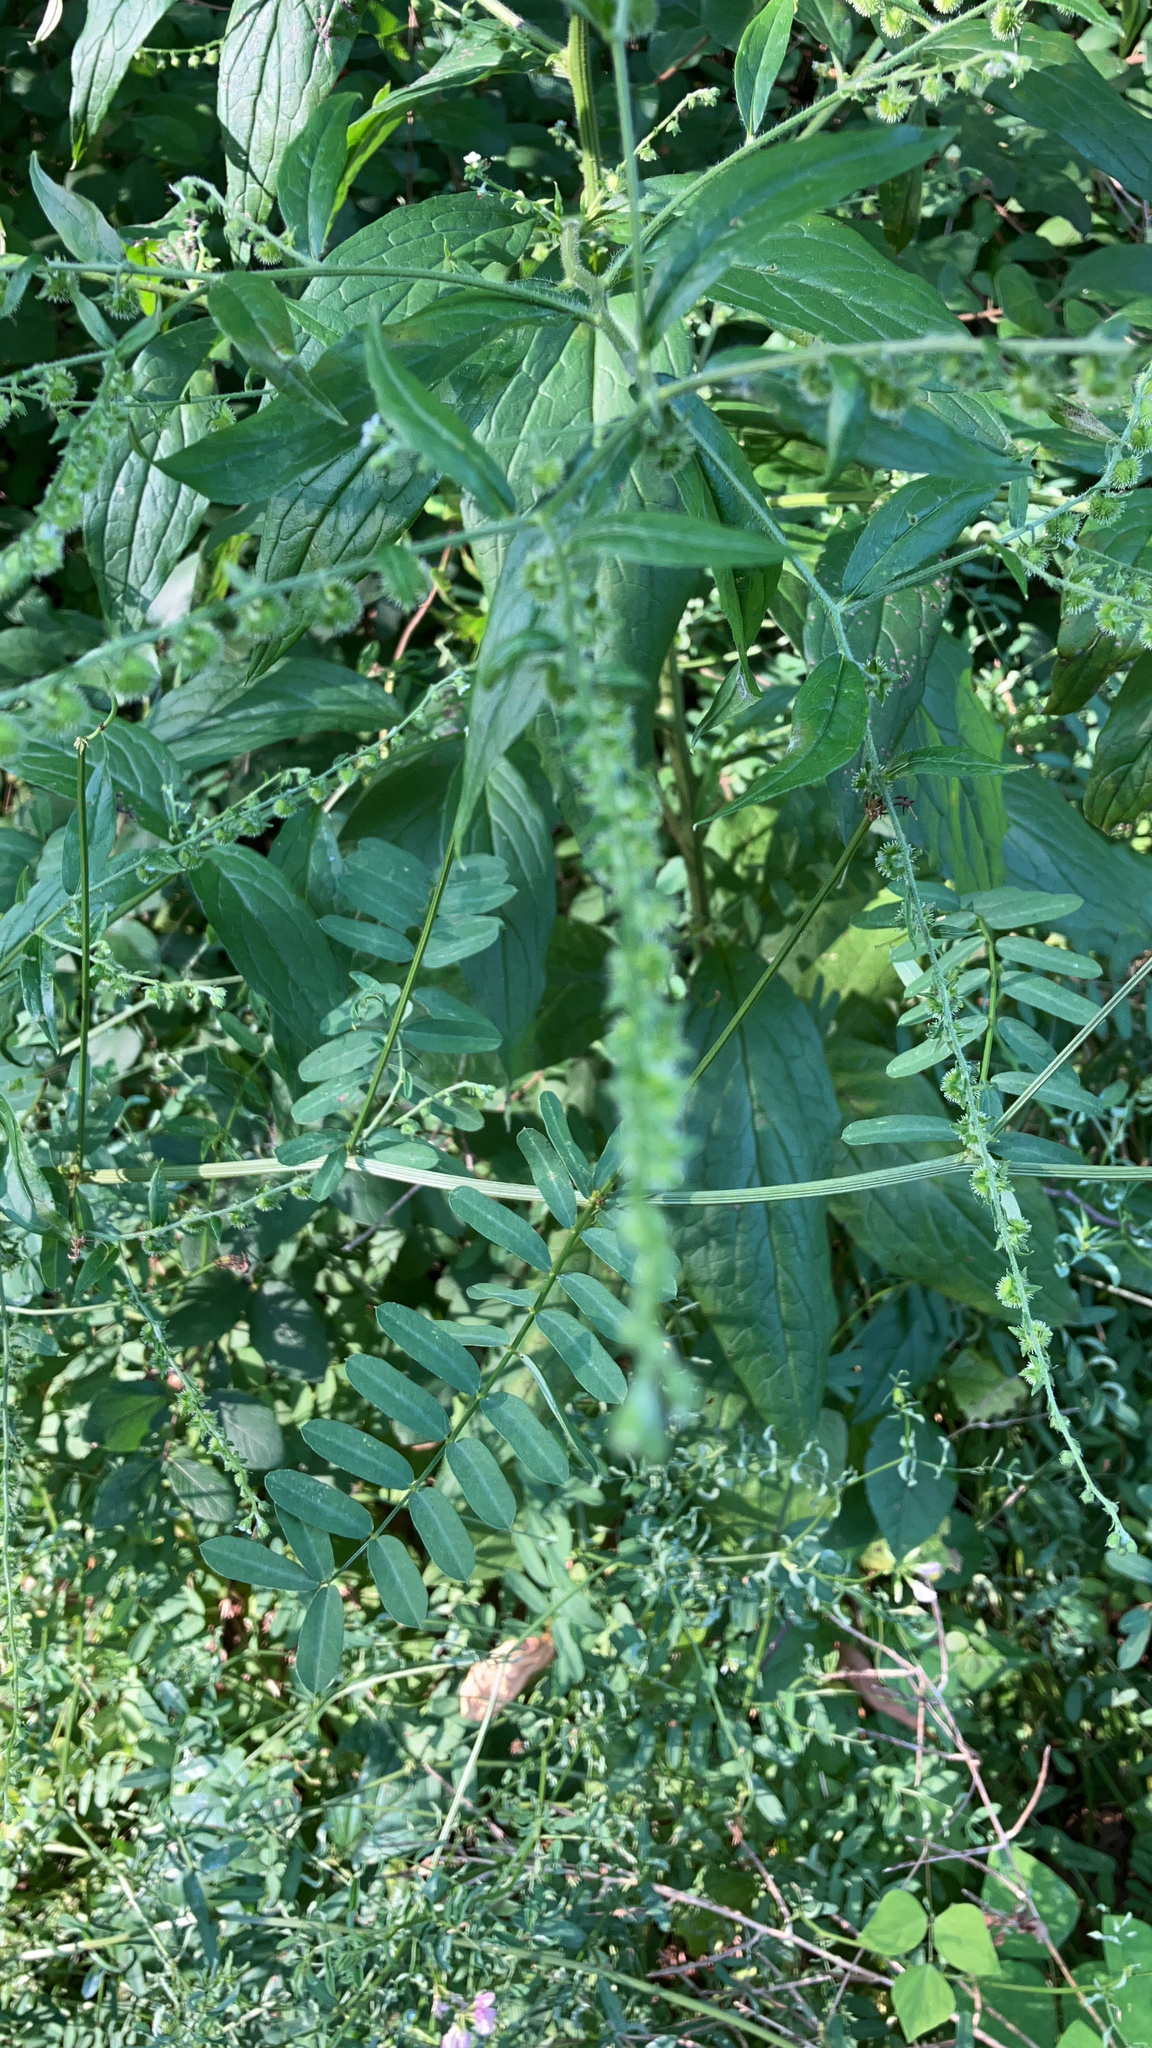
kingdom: Plantae
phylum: Tracheophyta
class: Magnoliopsida
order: Boraginales
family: Boraginaceae
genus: Hackelia
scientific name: Hackelia virginiana
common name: Beggar's-lice
